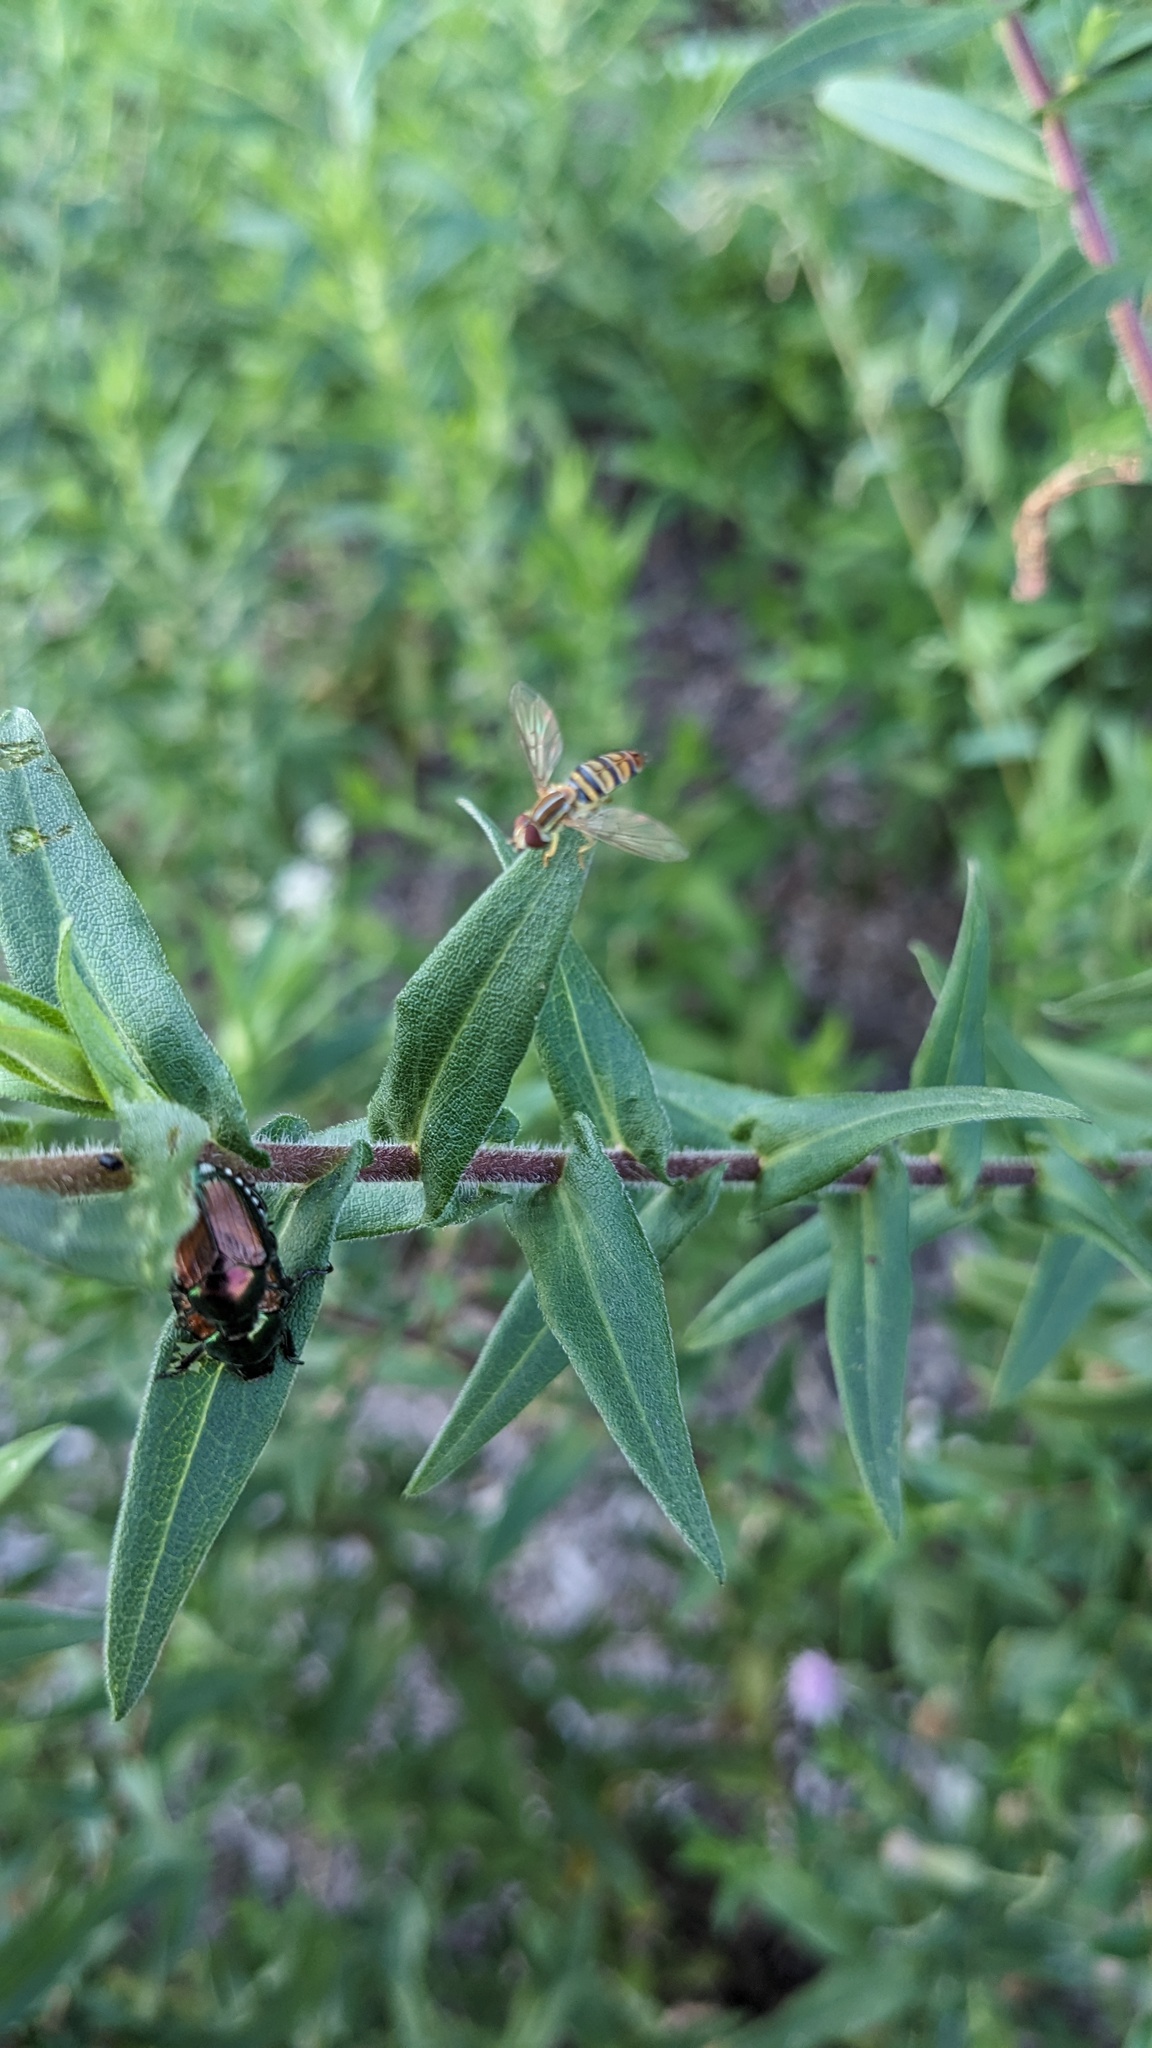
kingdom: Animalia
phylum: Arthropoda
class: Insecta
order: Diptera
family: Syrphidae
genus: Toxomerus
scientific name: Toxomerus politus
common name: Maize calligrapher
